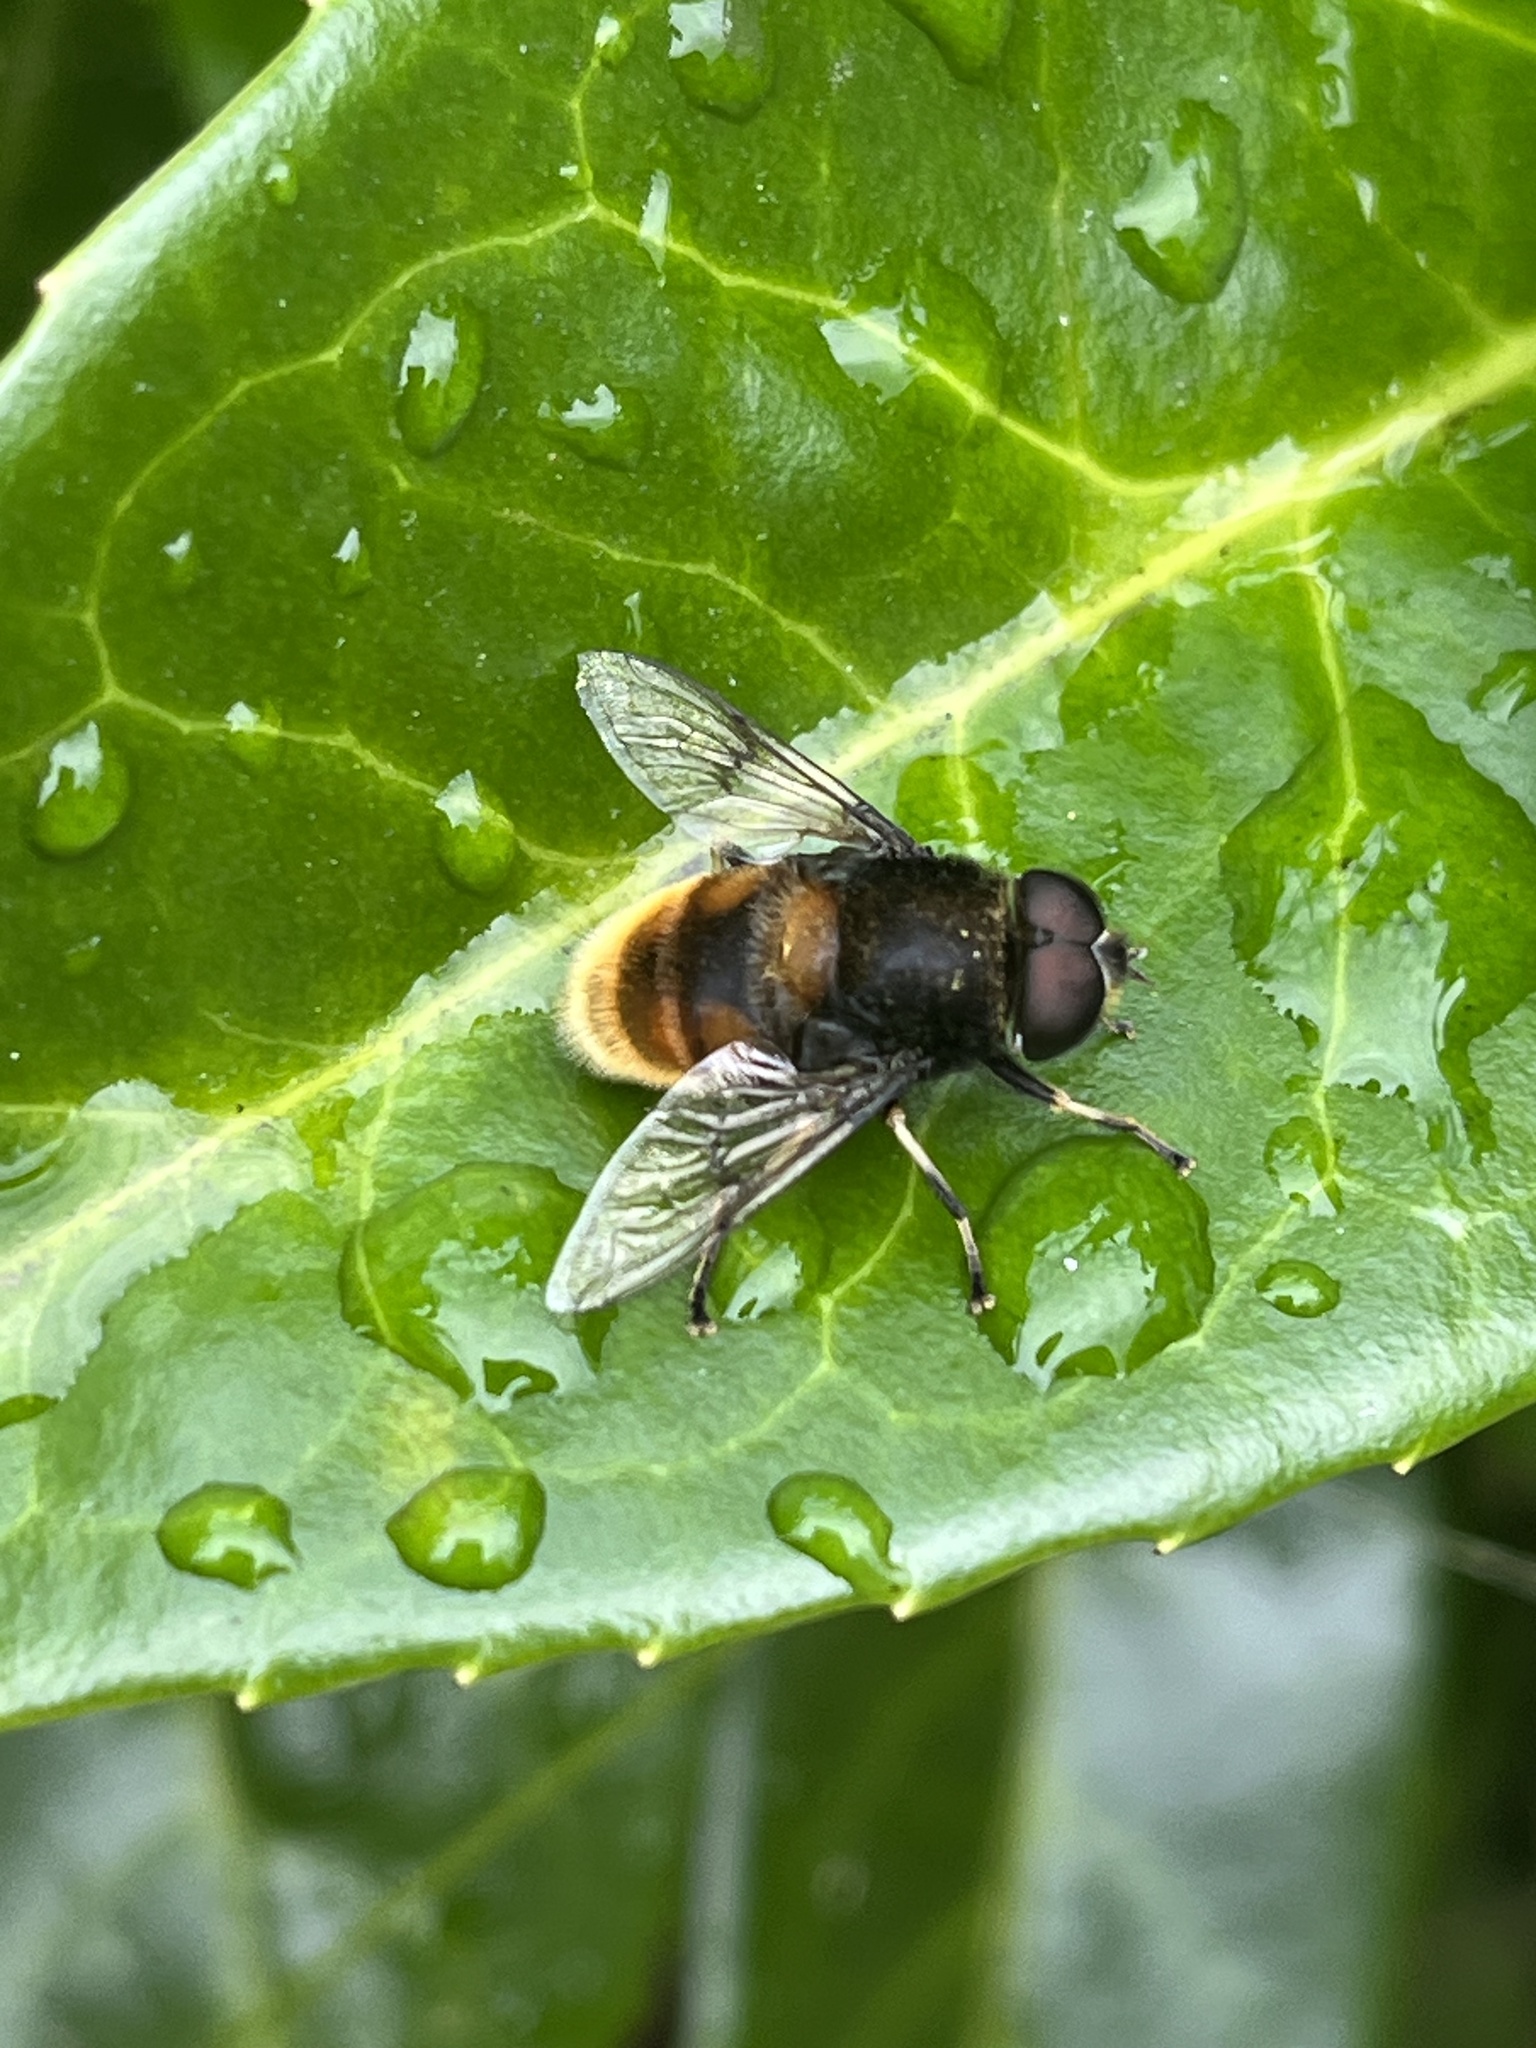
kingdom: Animalia
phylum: Arthropoda
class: Insecta
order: Diptera
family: Syrphidae
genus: Eristalis
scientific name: Eristalis intricaria
